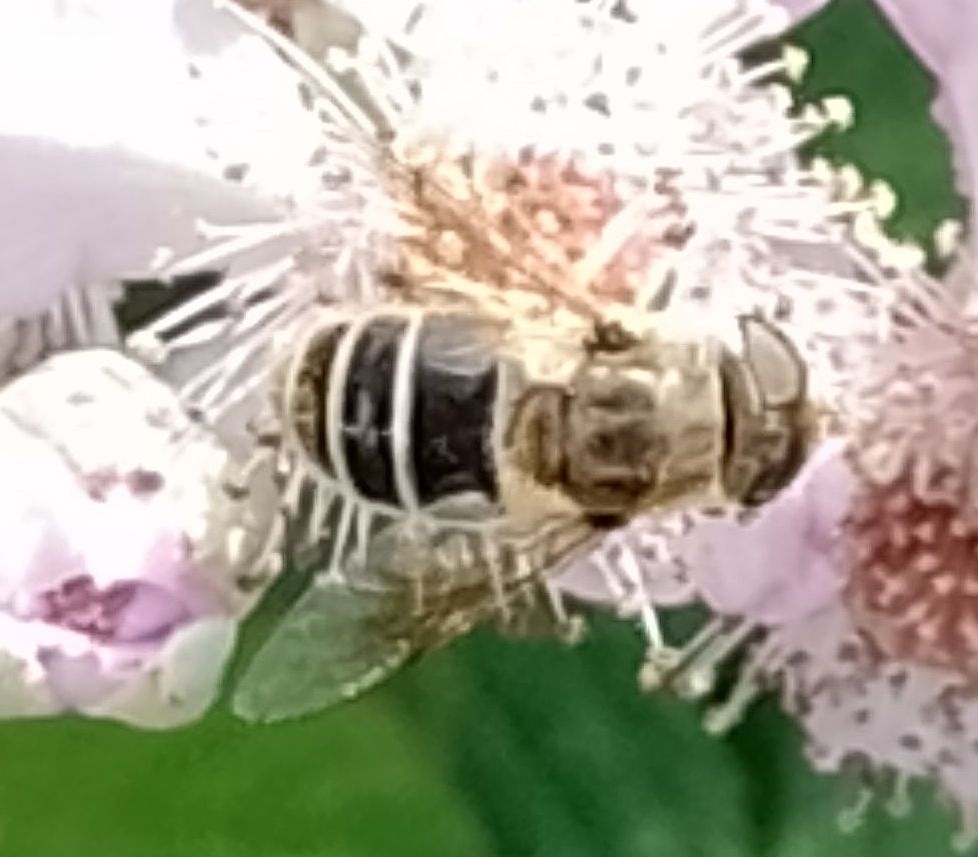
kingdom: Animalia
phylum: Arthropoda
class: Insecta
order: Diptera
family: Syrphidae
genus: Eoseristalis
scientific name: Eoseristalis
